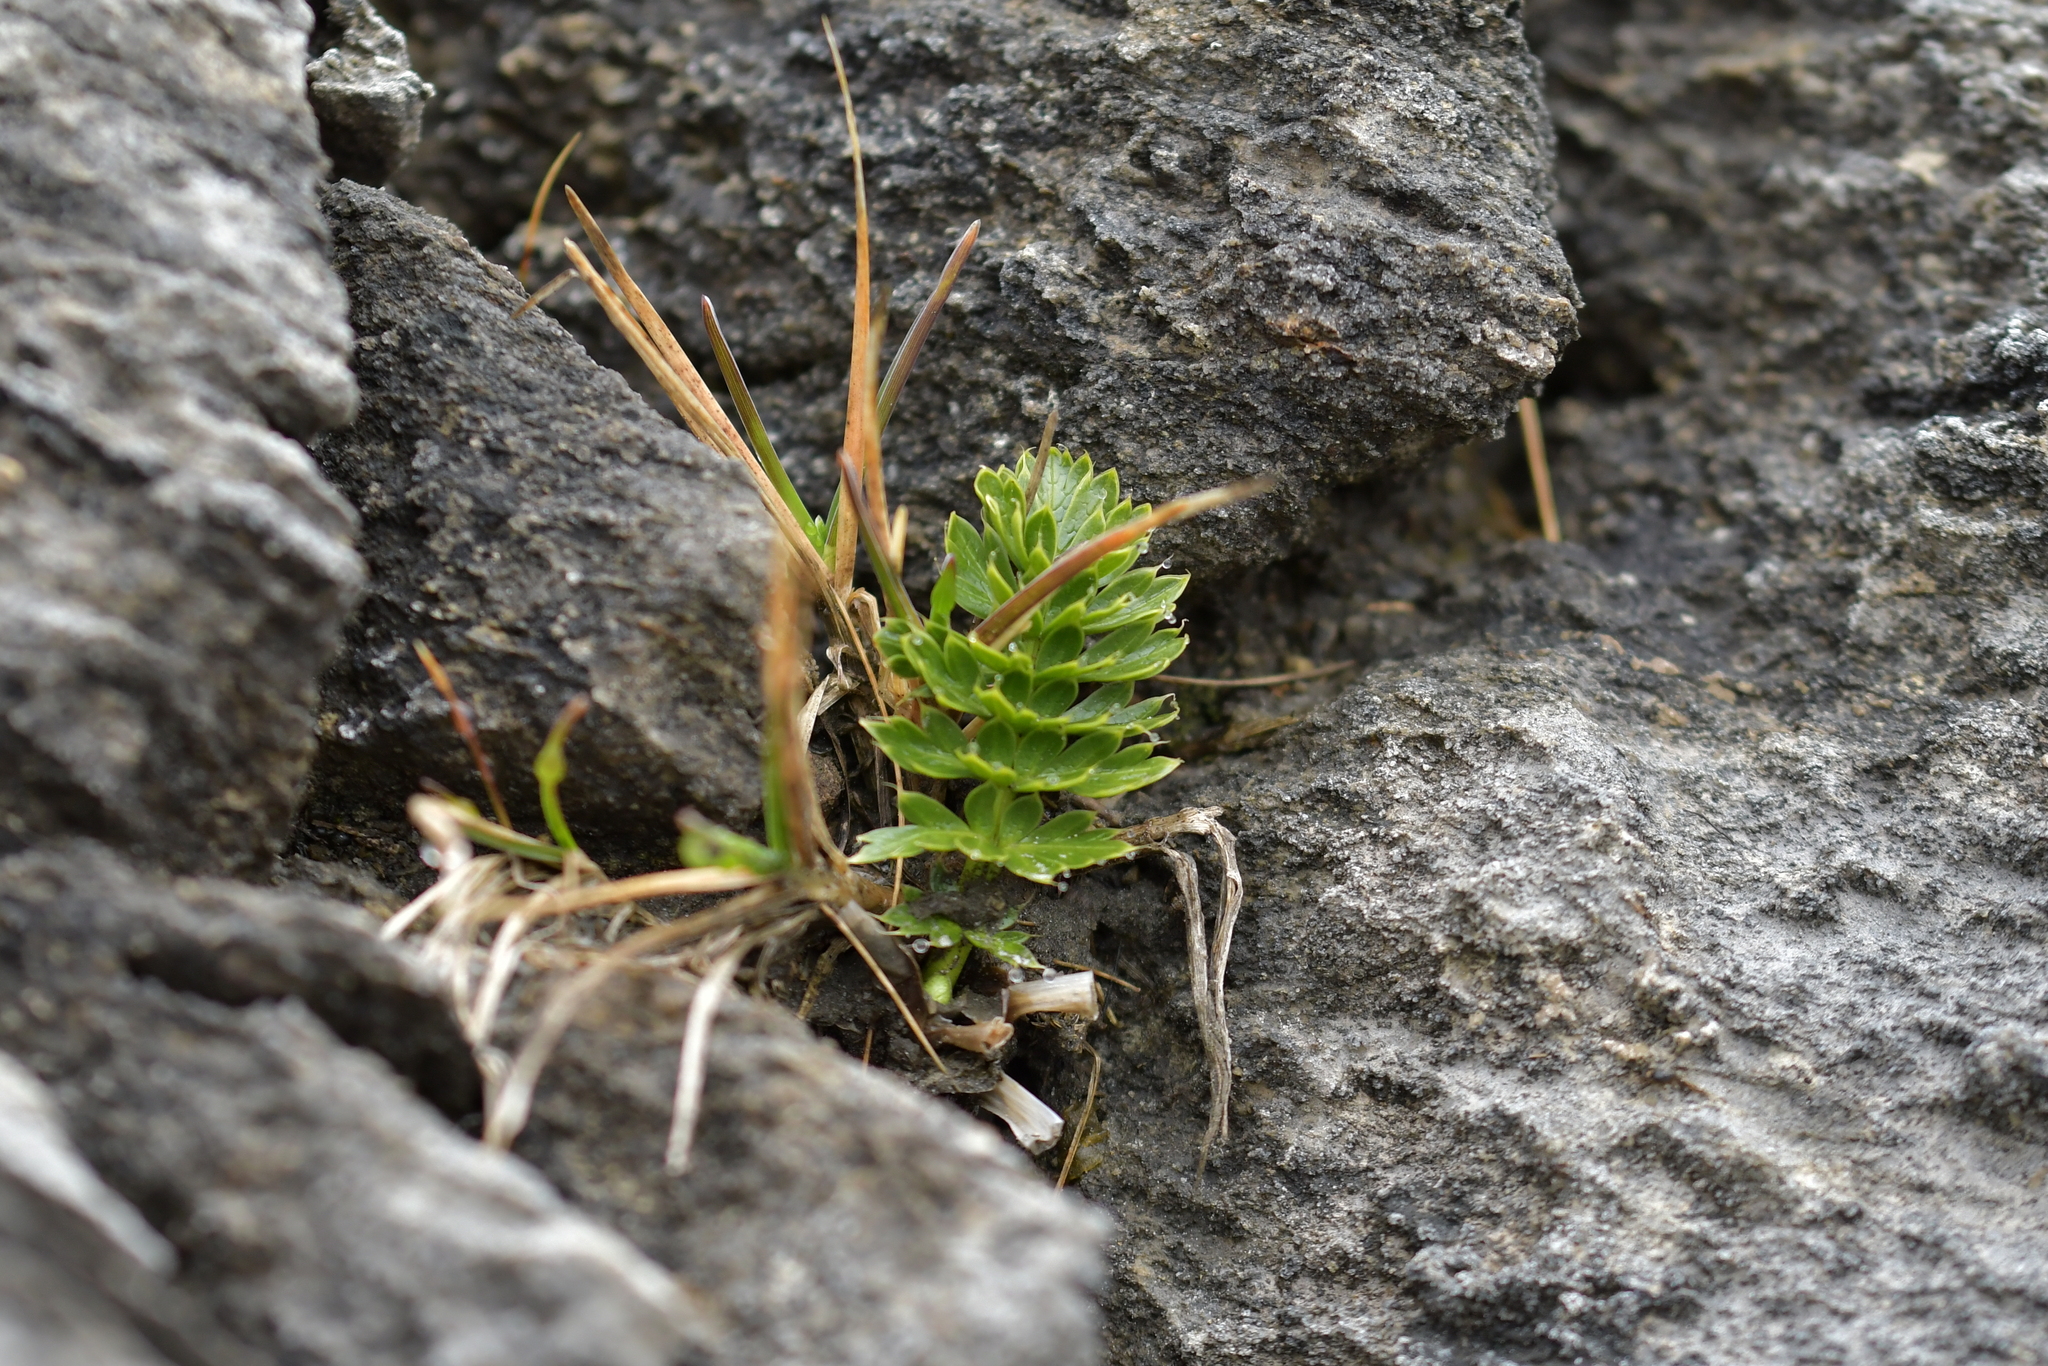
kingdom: Plantae
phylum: Tracheophyta
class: Magnoliopsida
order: Apiales
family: Apiaceae
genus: Anisotome
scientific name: Anisotome pilifera
